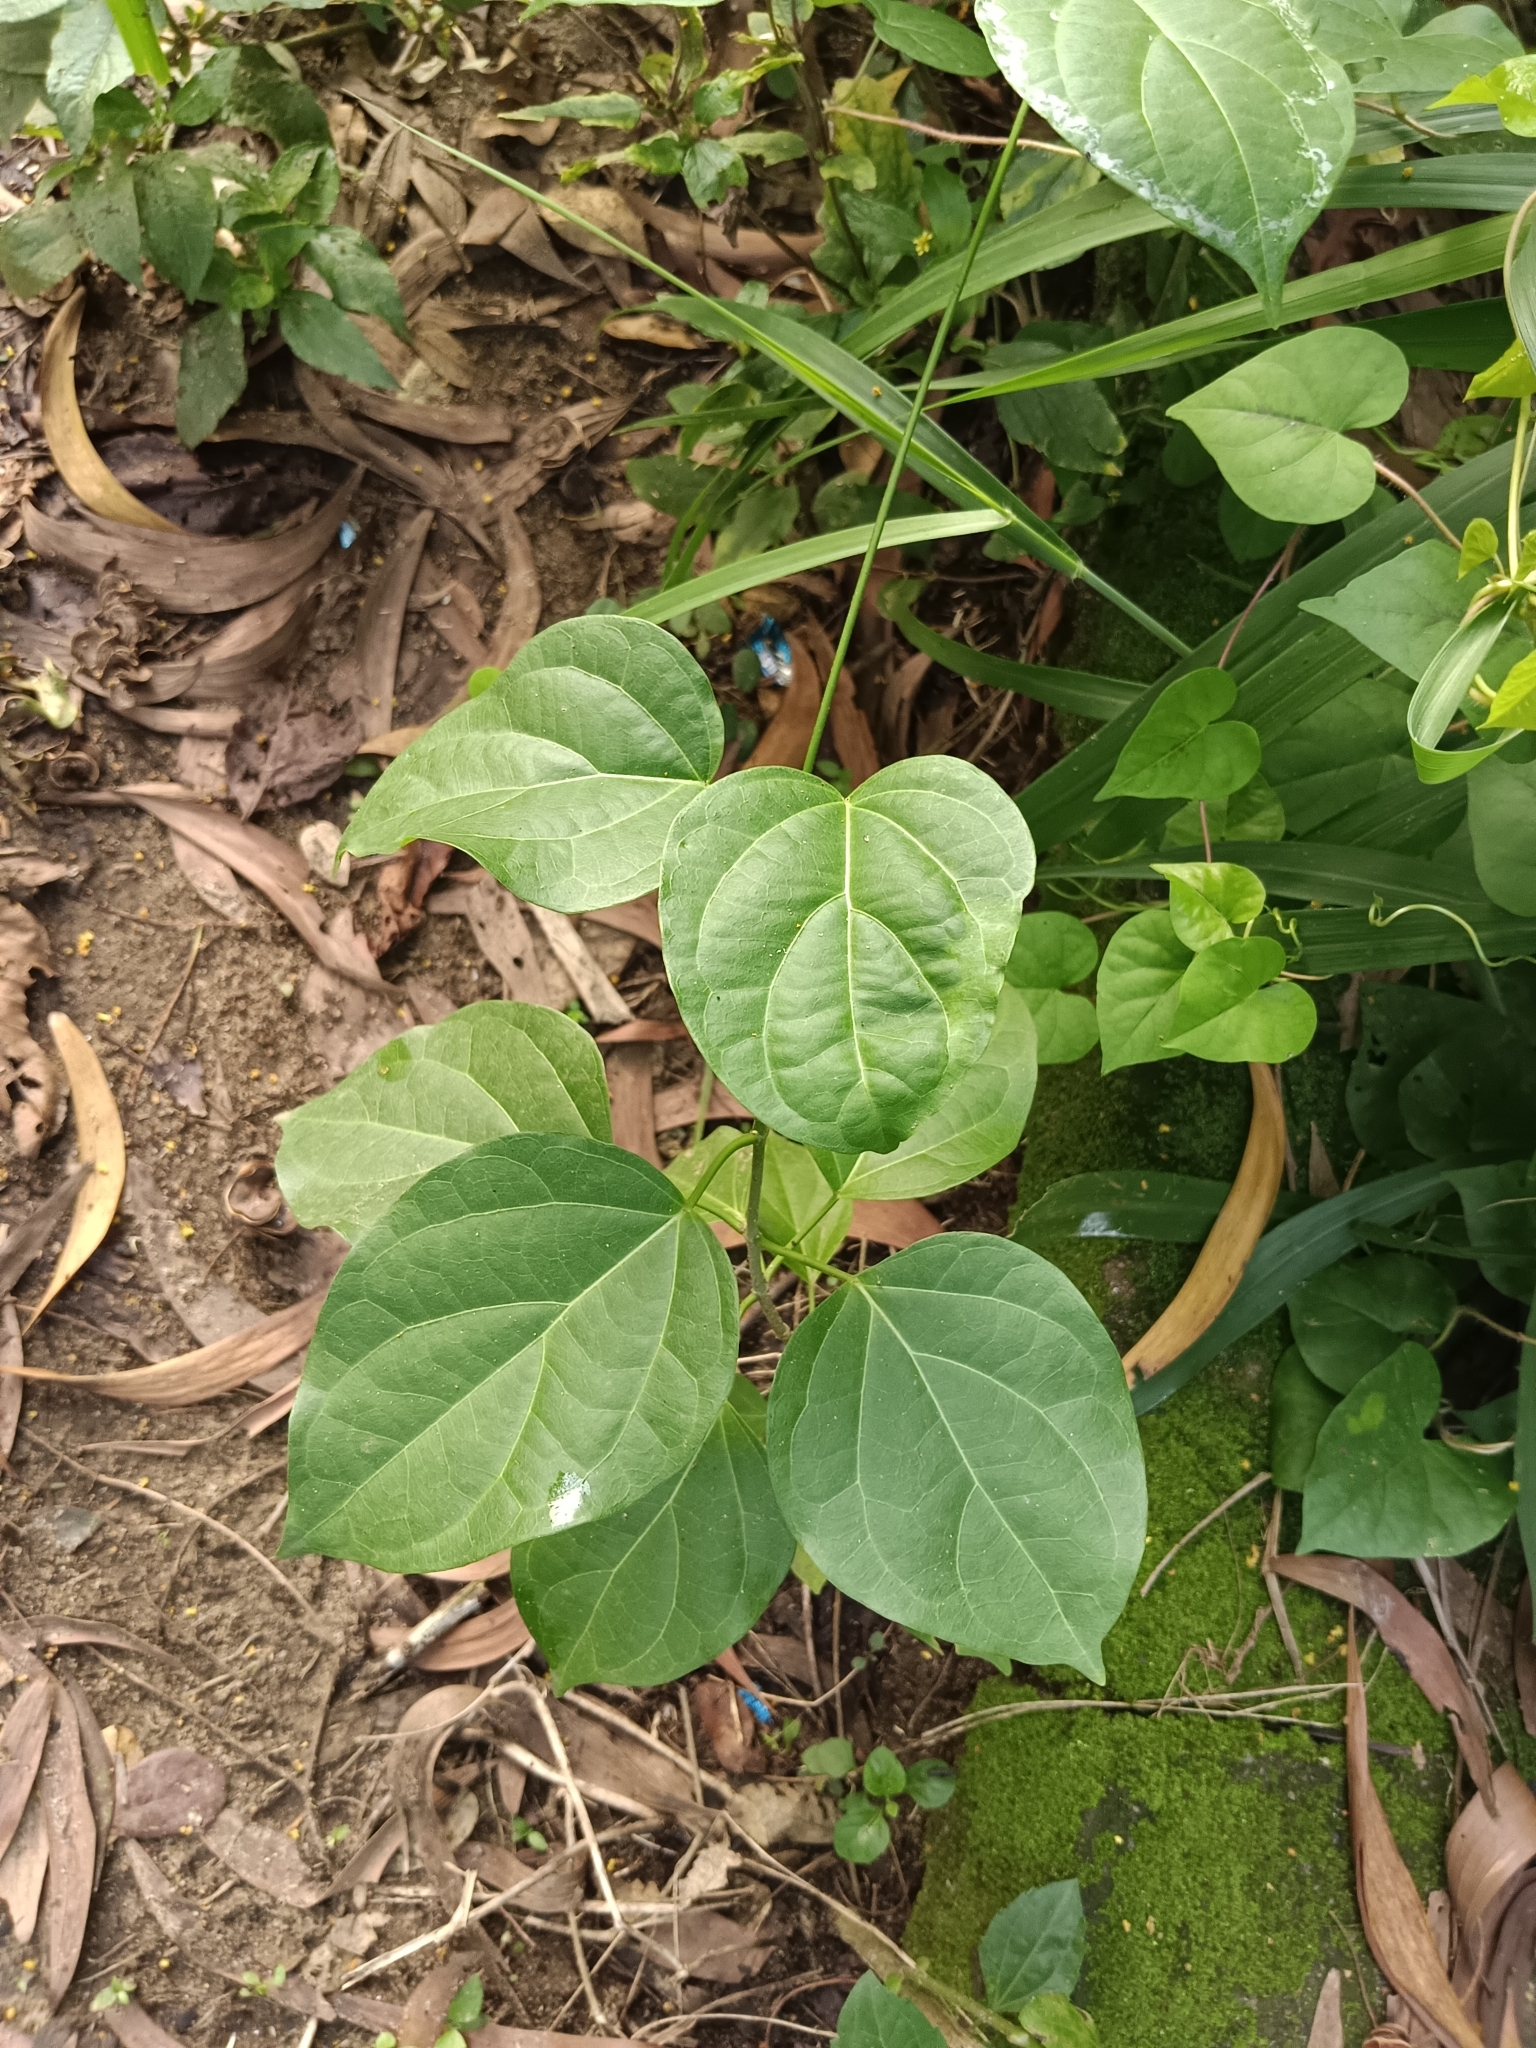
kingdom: Plantae
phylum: Tracheophyta
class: Magnoliopsida
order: Gentianales
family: Apocynaceae
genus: Stephanotis
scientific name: Stephanotis volubilis
